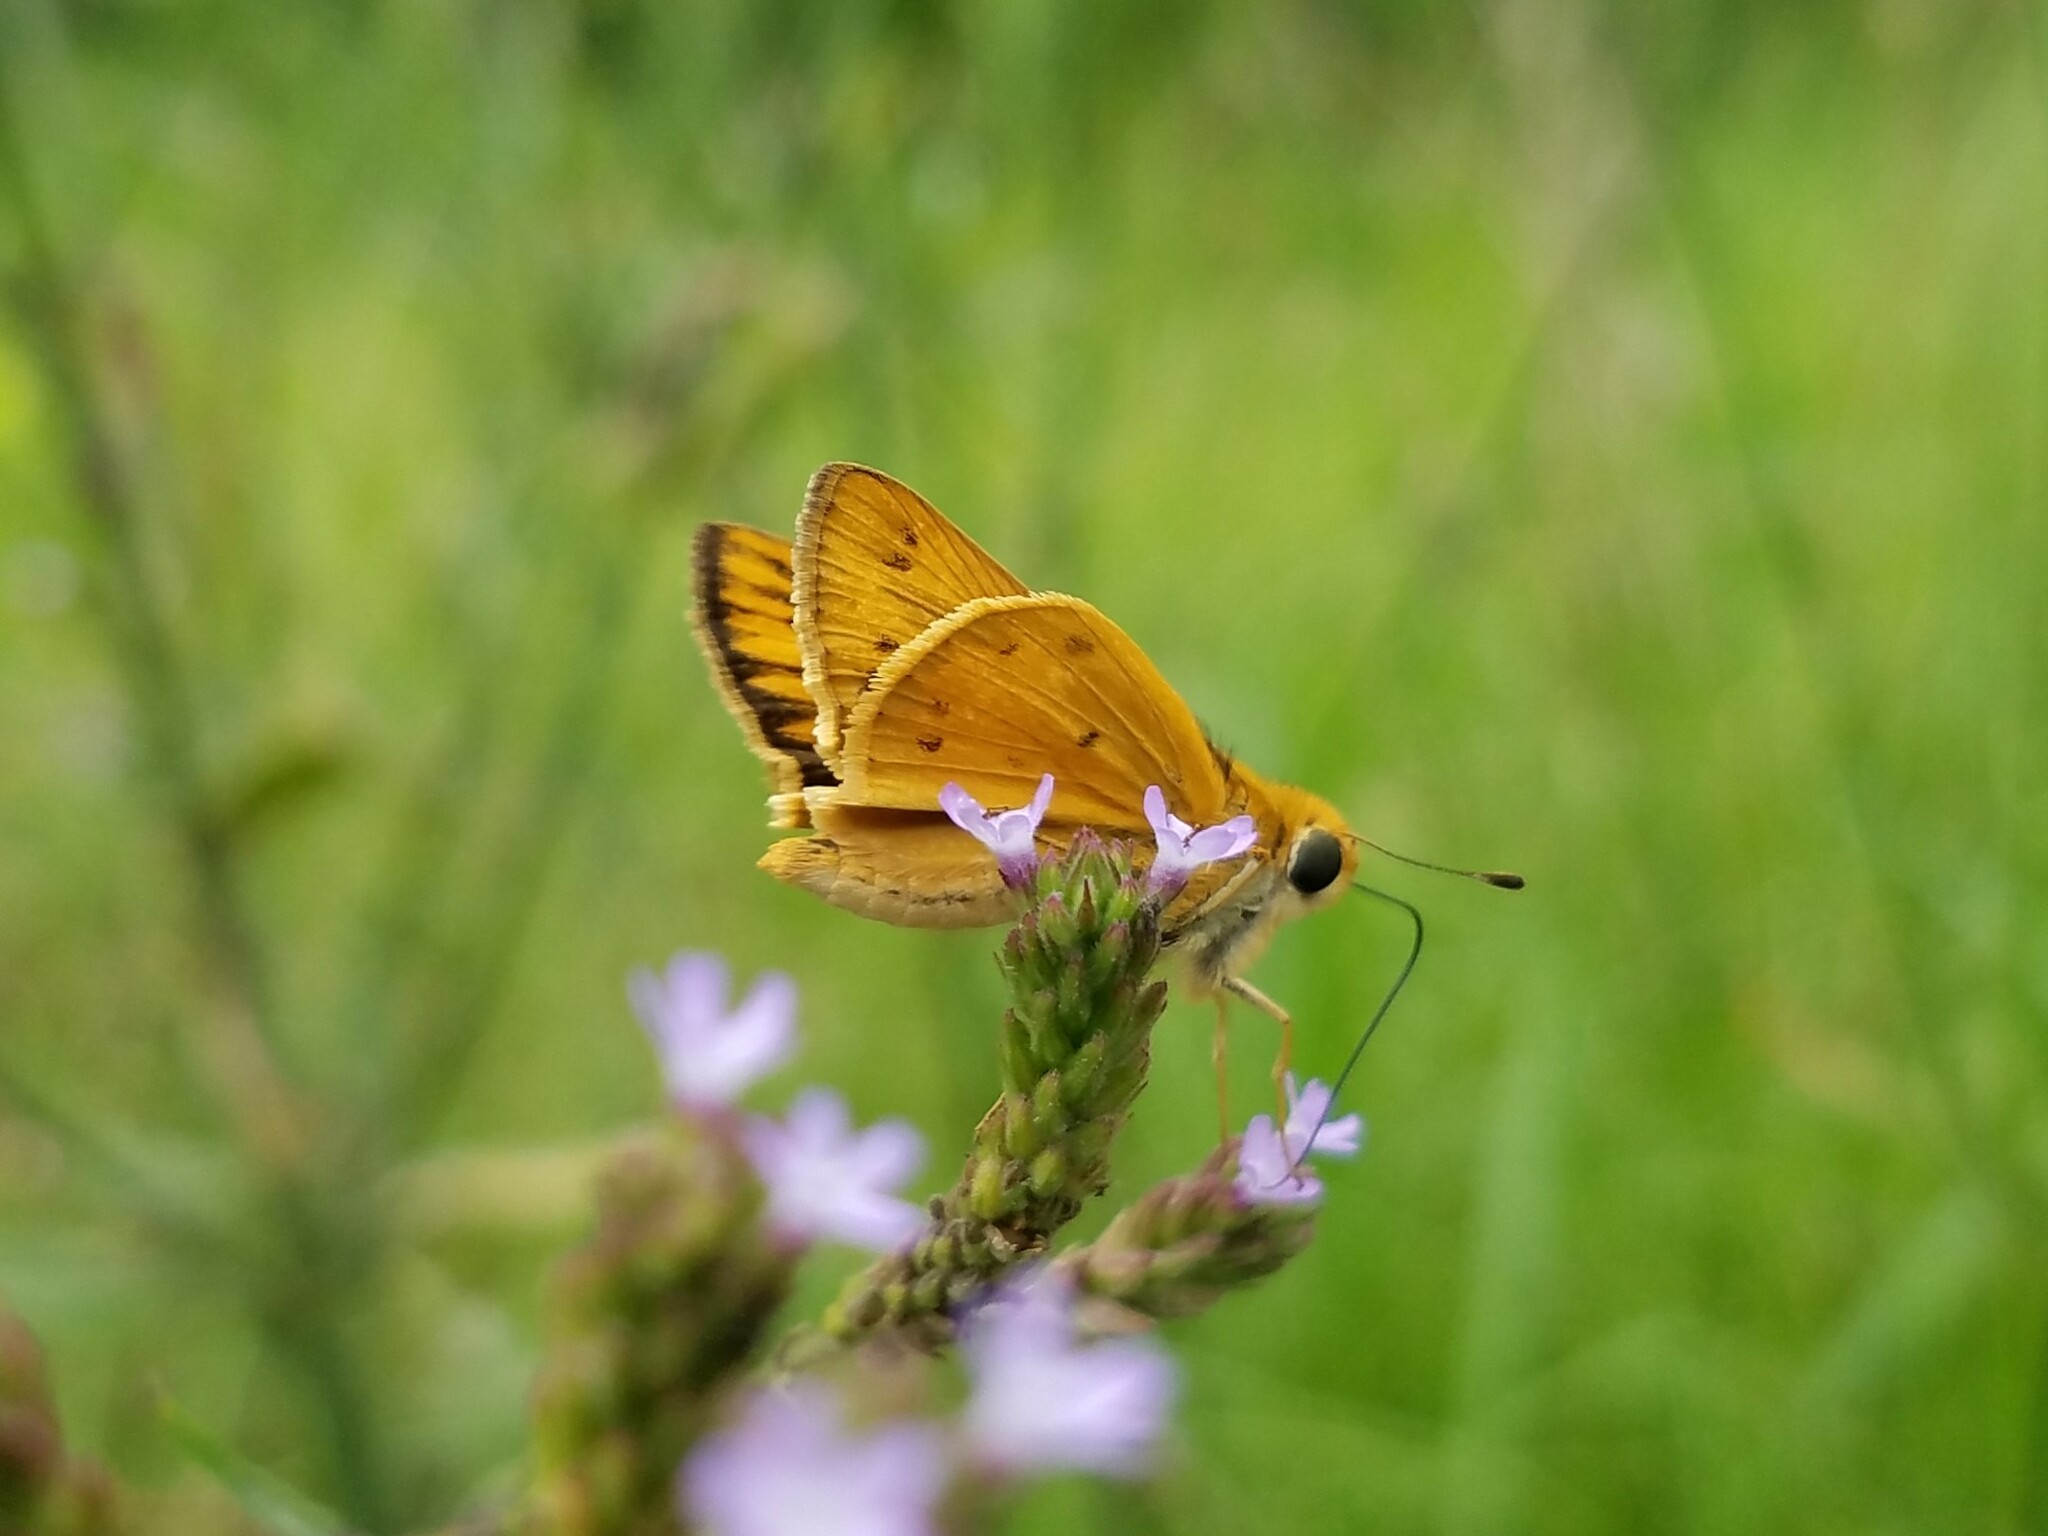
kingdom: Animalia
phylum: Arthropoda
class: Insecta
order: Lepidoptera
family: Hesperiidae
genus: Hylephila
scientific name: Hylephila phyleus
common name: Fiery skipper
